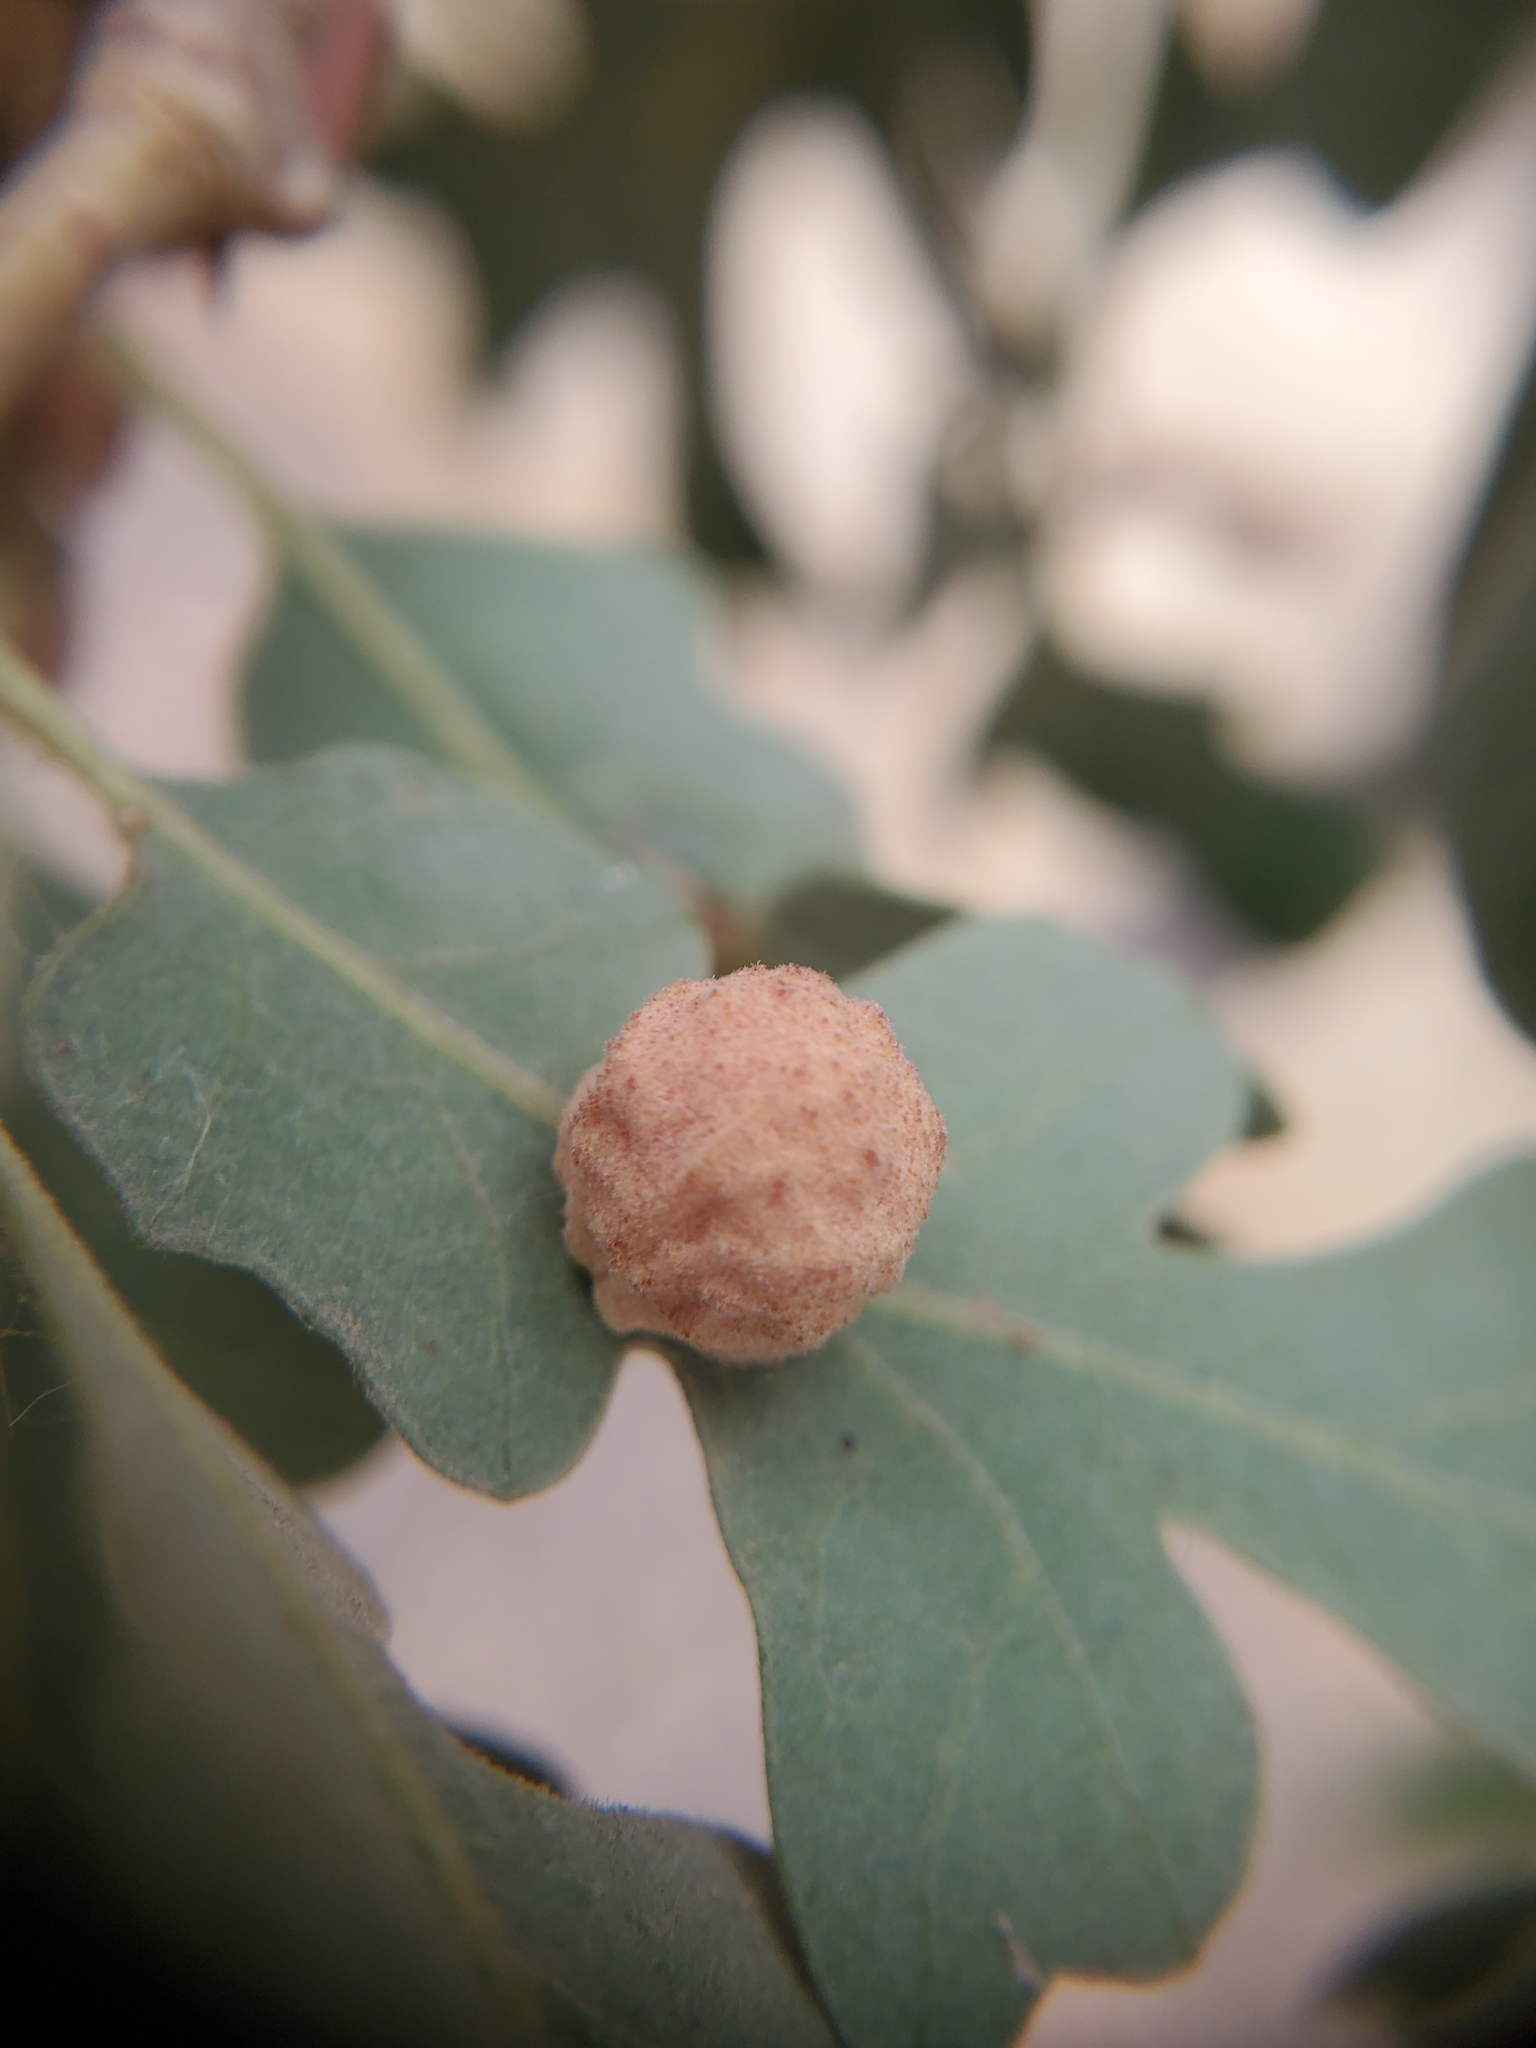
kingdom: Animalia
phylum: Arthropoda
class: Insecta
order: Hymenoptera
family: Cynipidae
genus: Cynips
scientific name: Cynips conspicua
